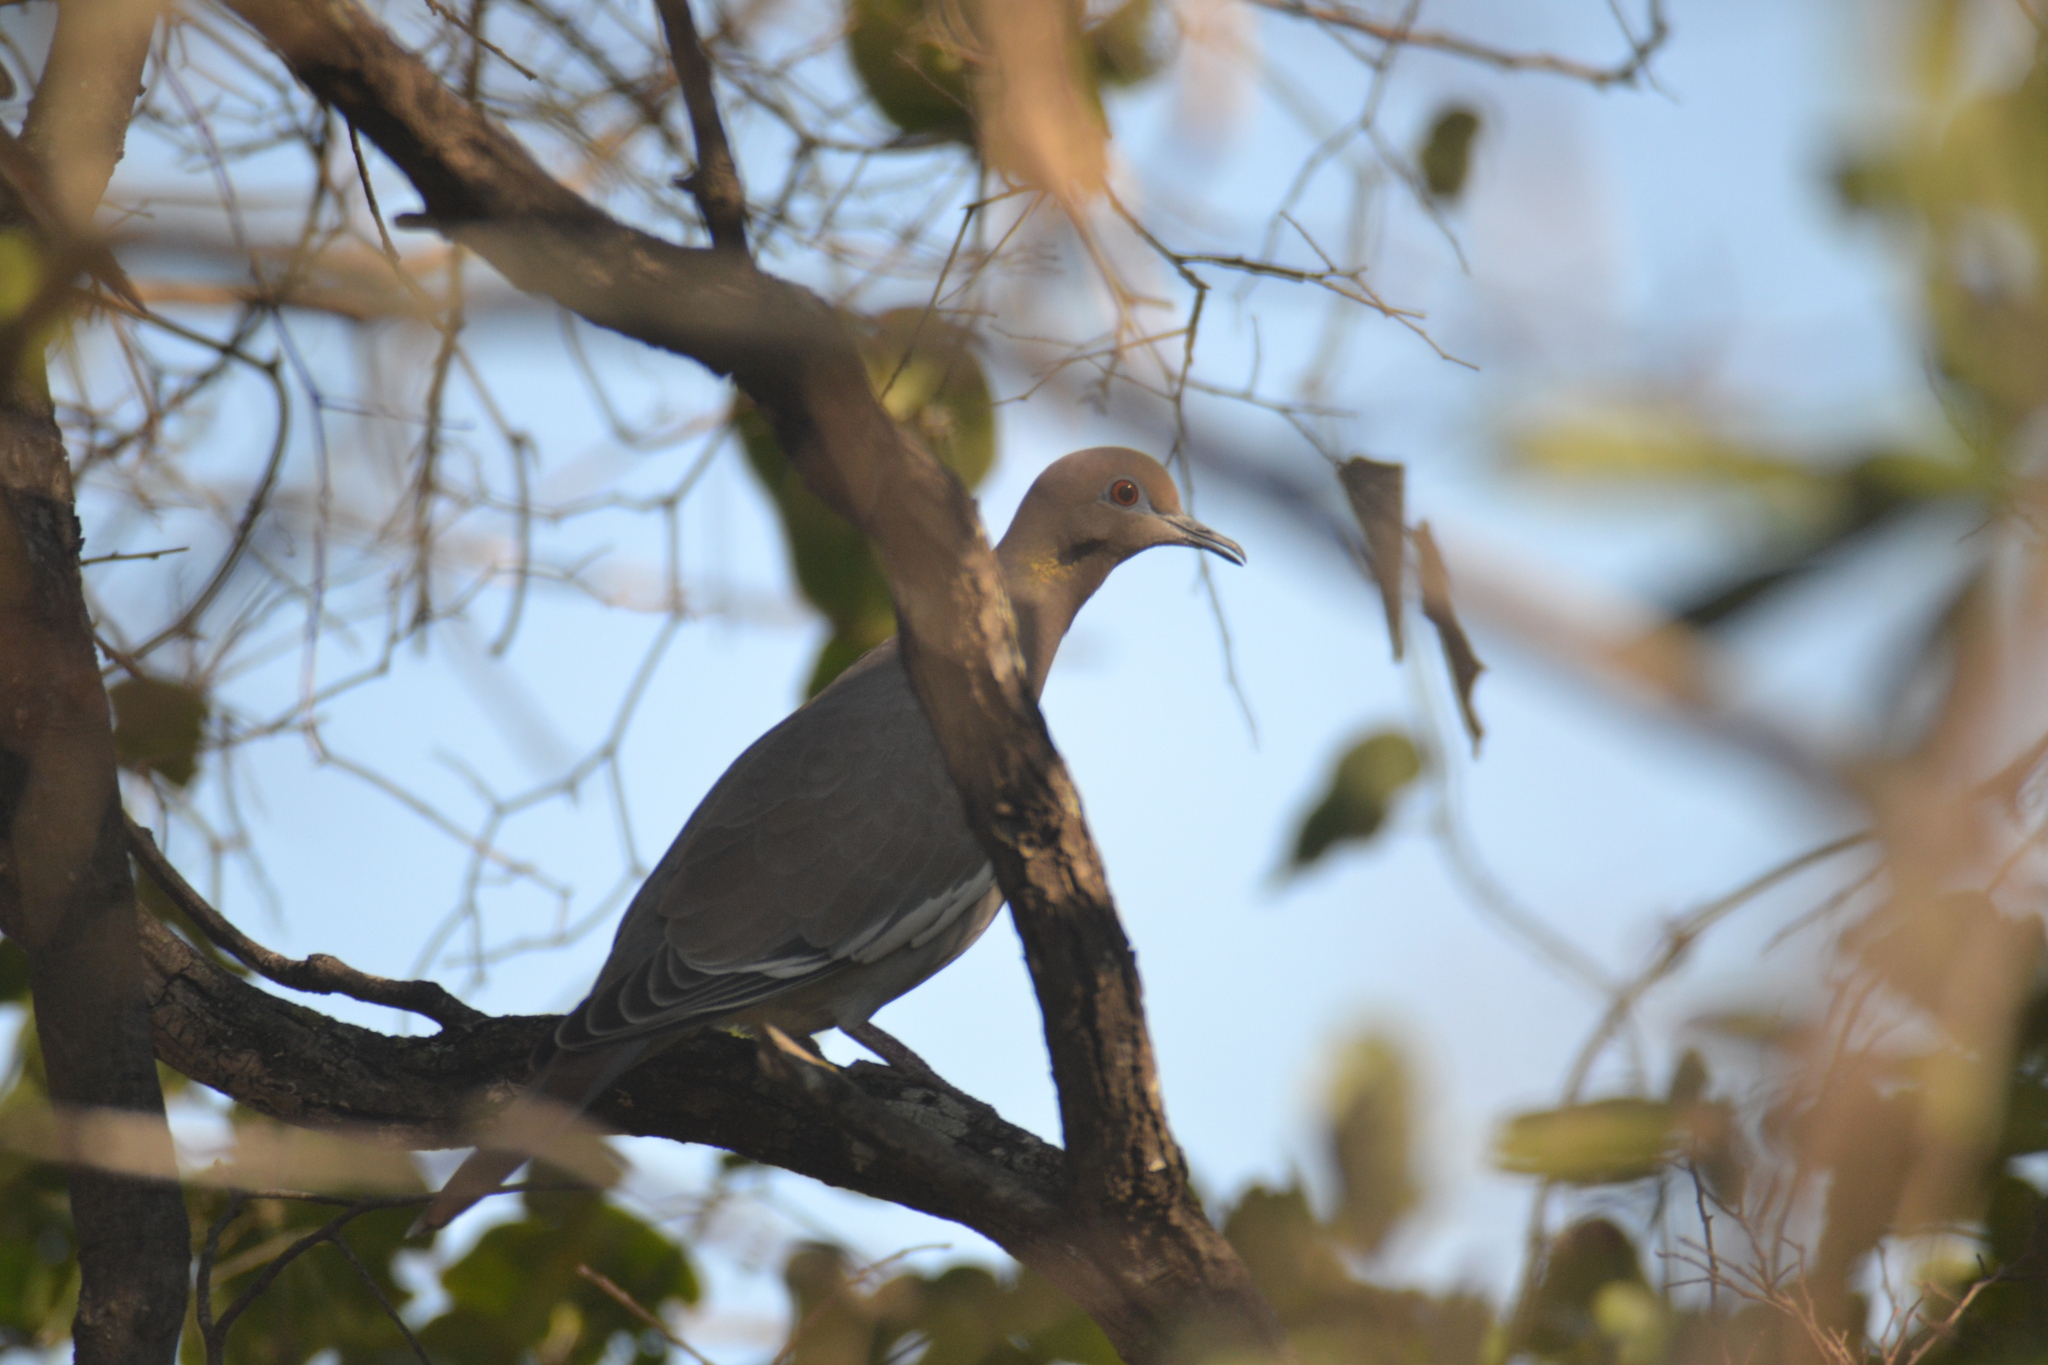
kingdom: Animalia
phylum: Chordata
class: Aves
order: Columbiformes
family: Columbidae
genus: Zenaida
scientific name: Zenaida asiatica
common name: White-winged dove
